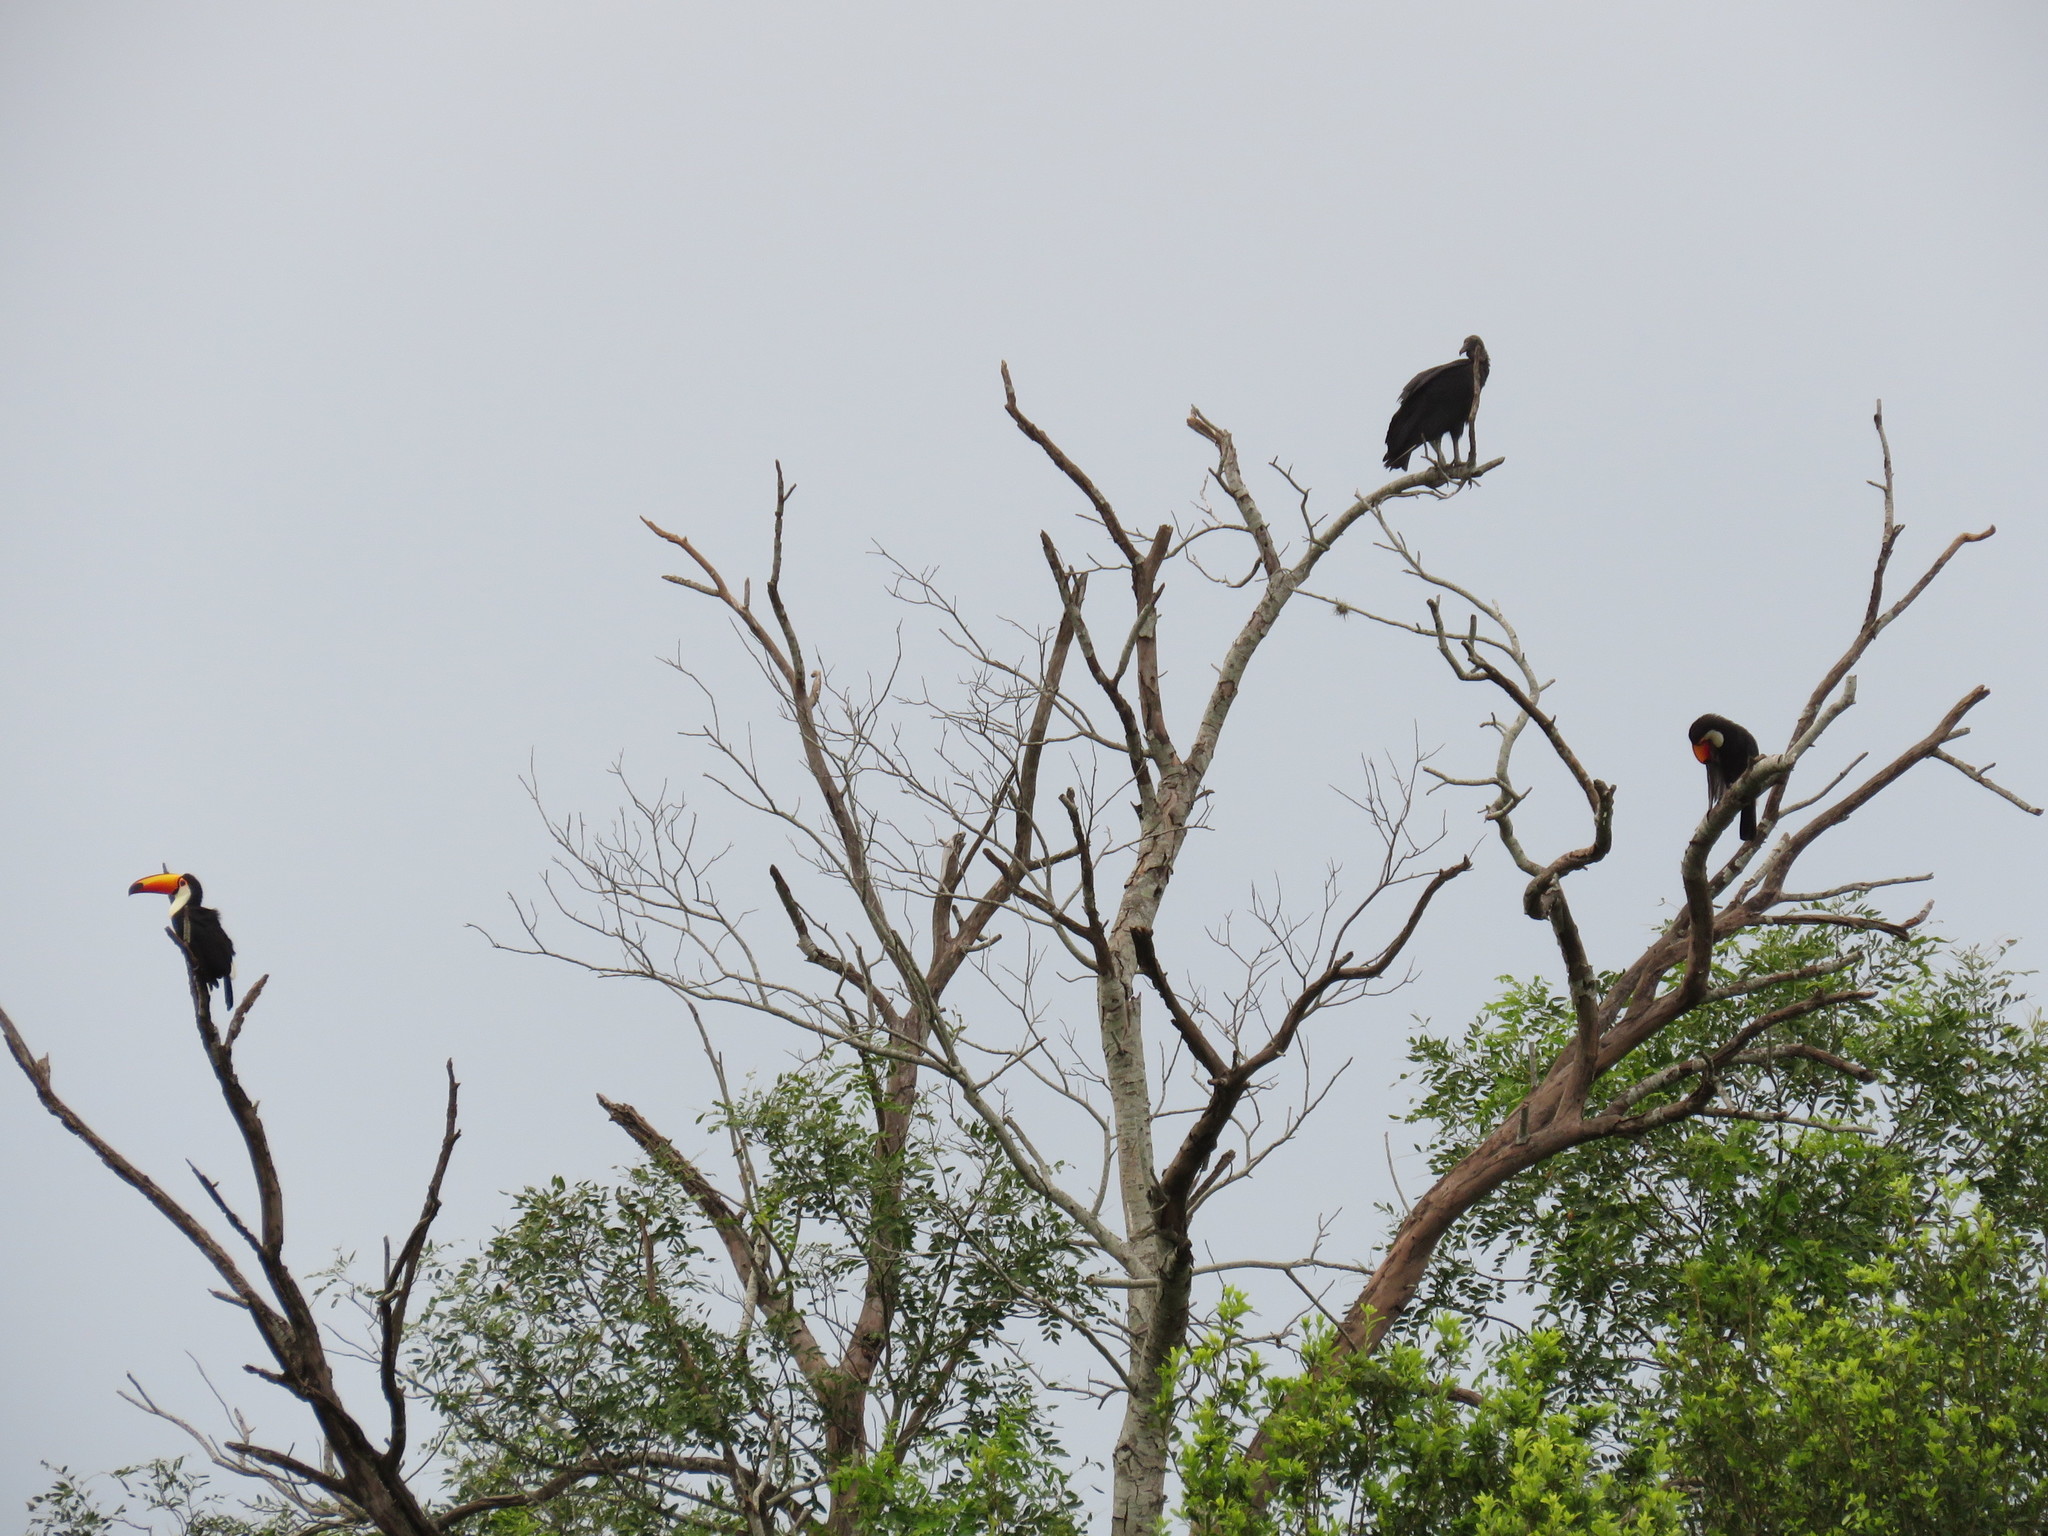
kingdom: Animalia
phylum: Chordata
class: Aves
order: Piciformes
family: Ramphastidae
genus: Ramphastos
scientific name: Ramphastos toco
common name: Toco toucan
